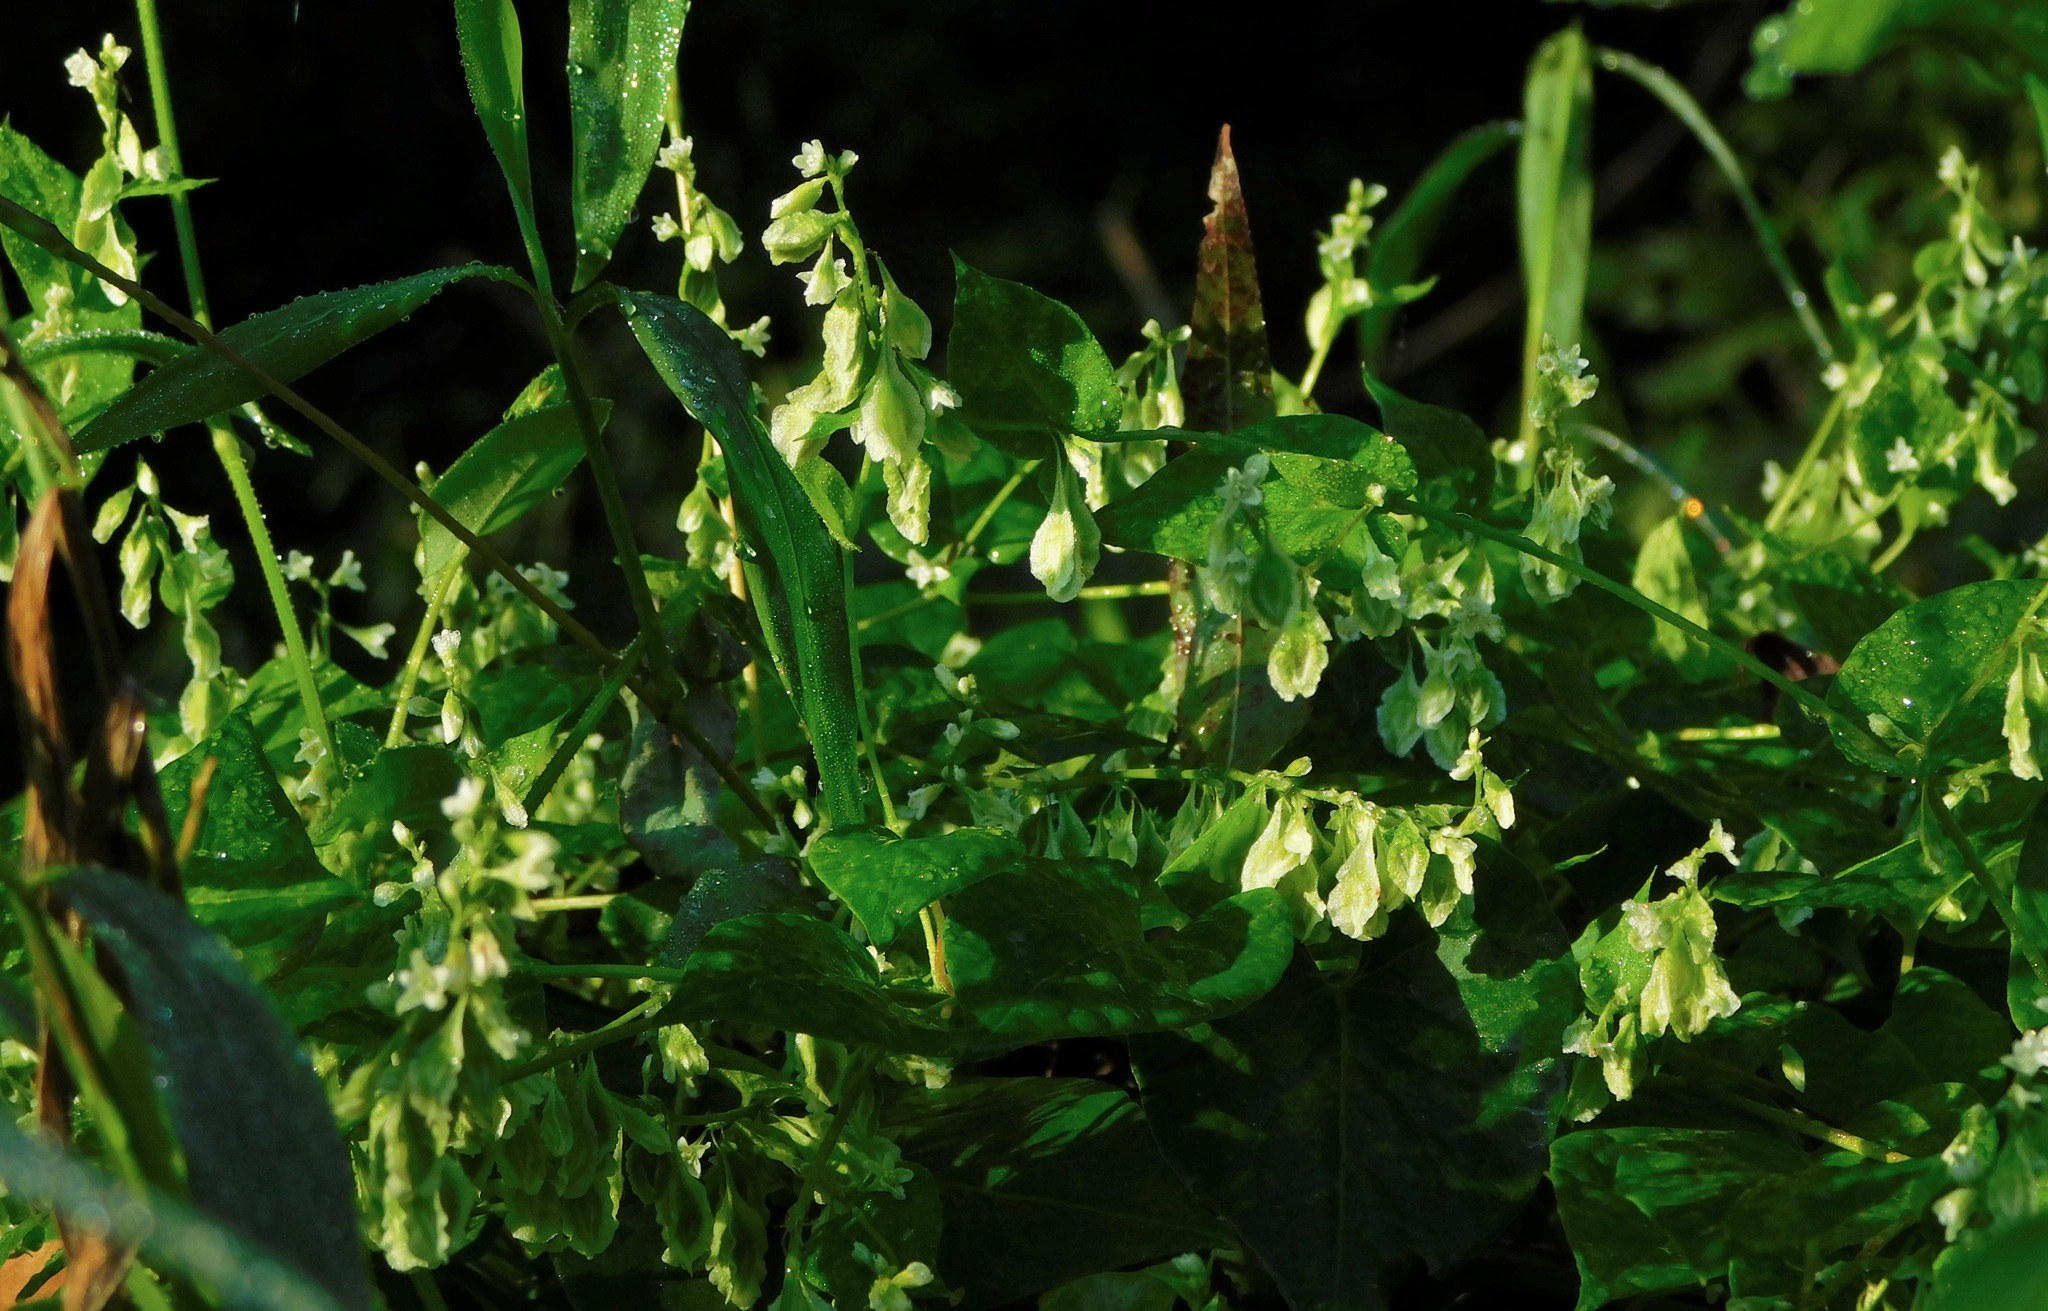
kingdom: Plantae
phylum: Tracheophyta
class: Magnoliopsida
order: Caryophyllales
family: Polygonaceae
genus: Fallopia
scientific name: Fallopia scandens
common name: Climbing false buckwheat
